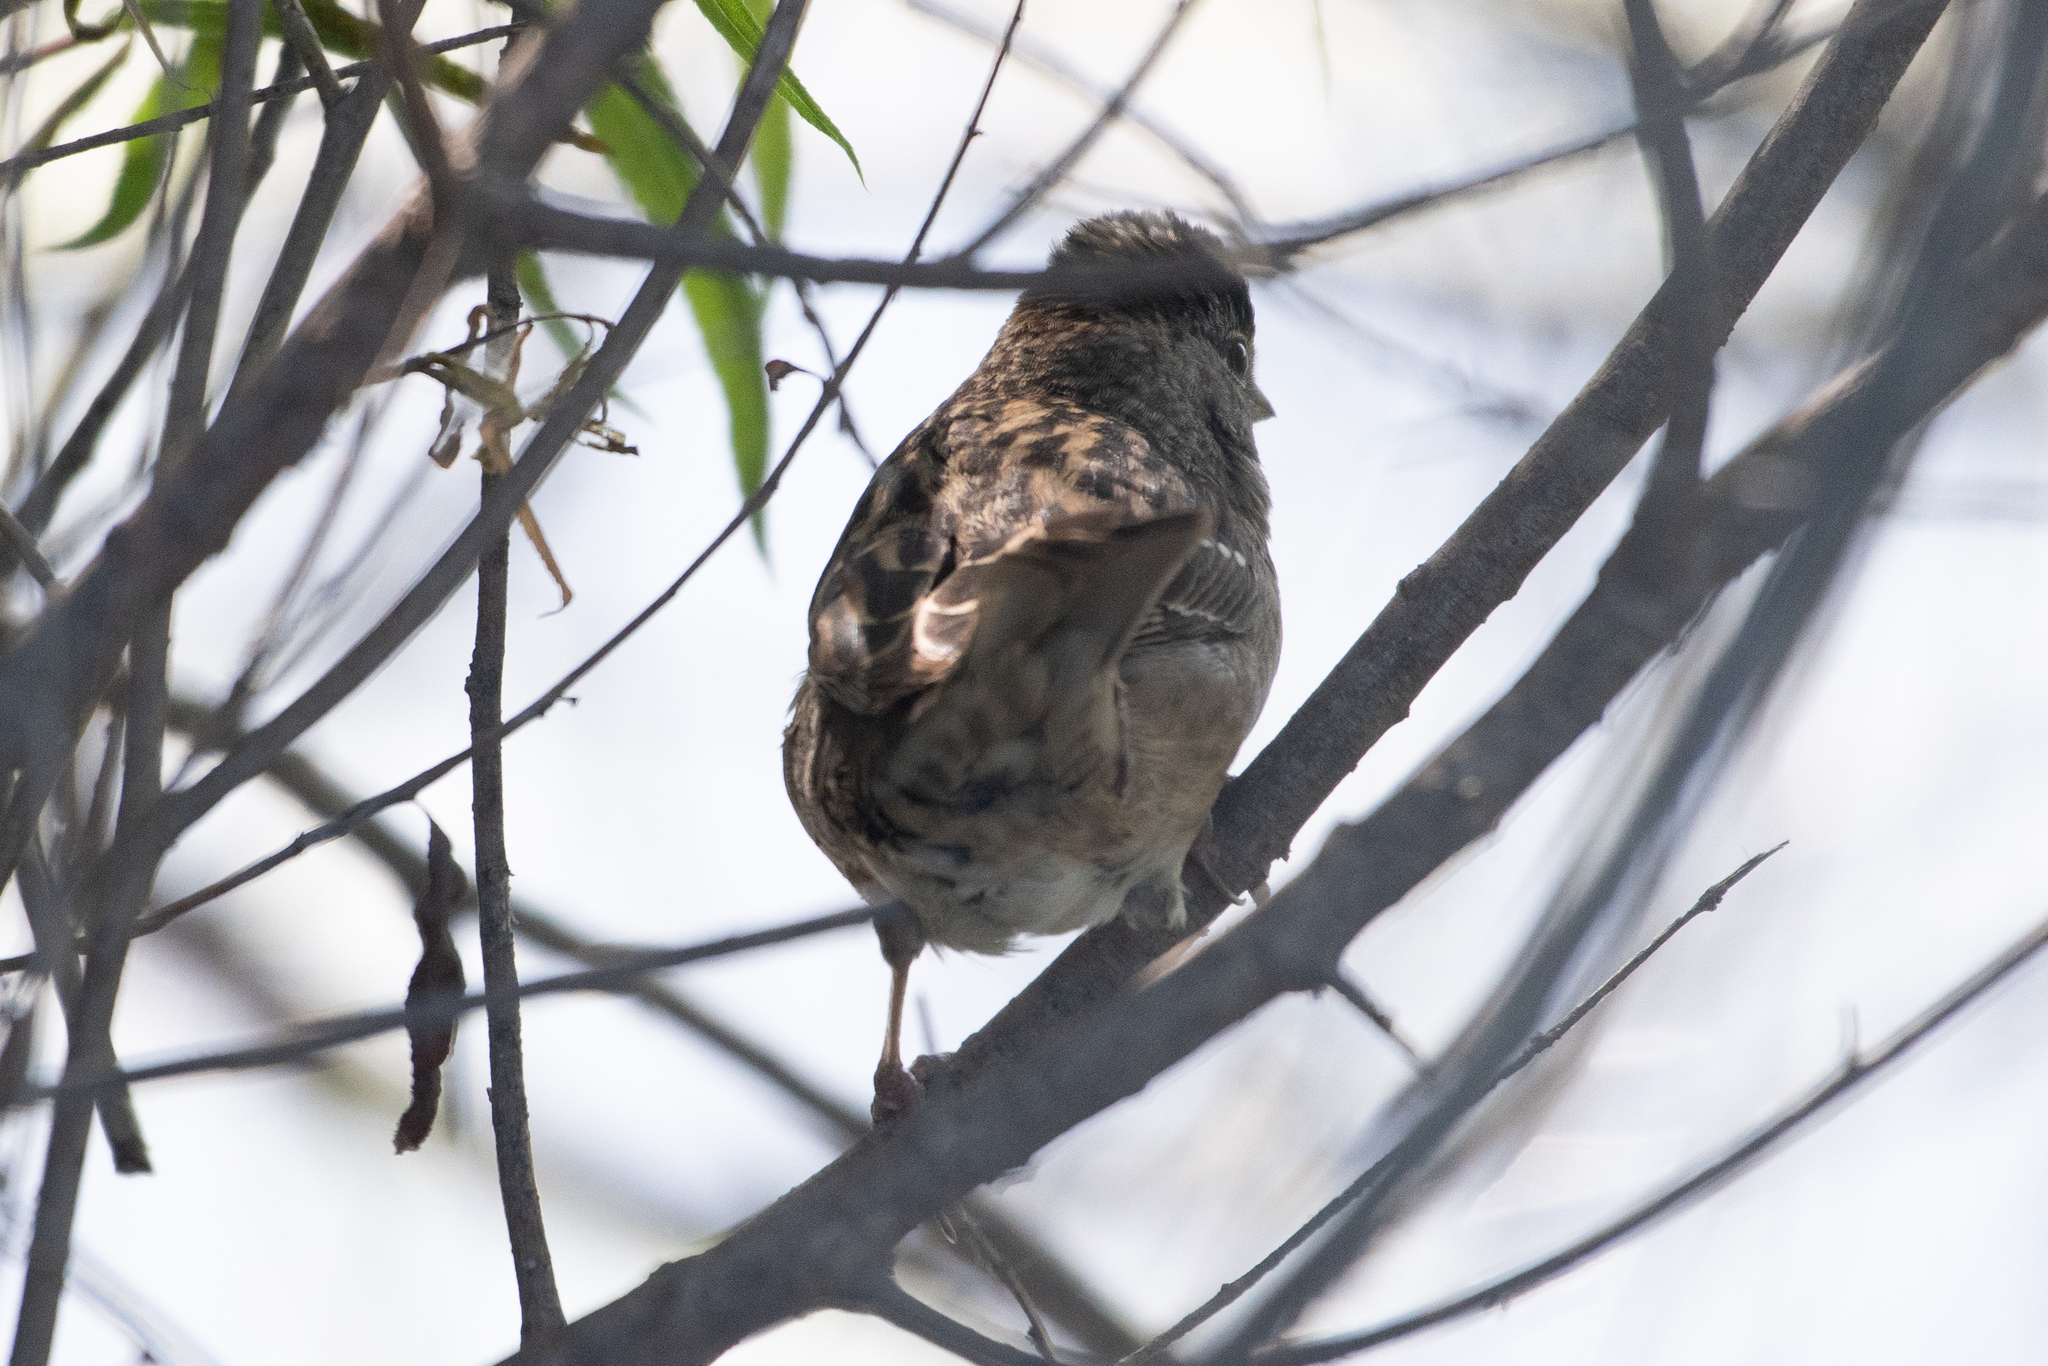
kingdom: Animalia
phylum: Chordata
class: Aves
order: Passeriformes
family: Passerellidae
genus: Zonotrichia
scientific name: Zonotrichia atricapilla
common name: Golden-crowned sparrow
